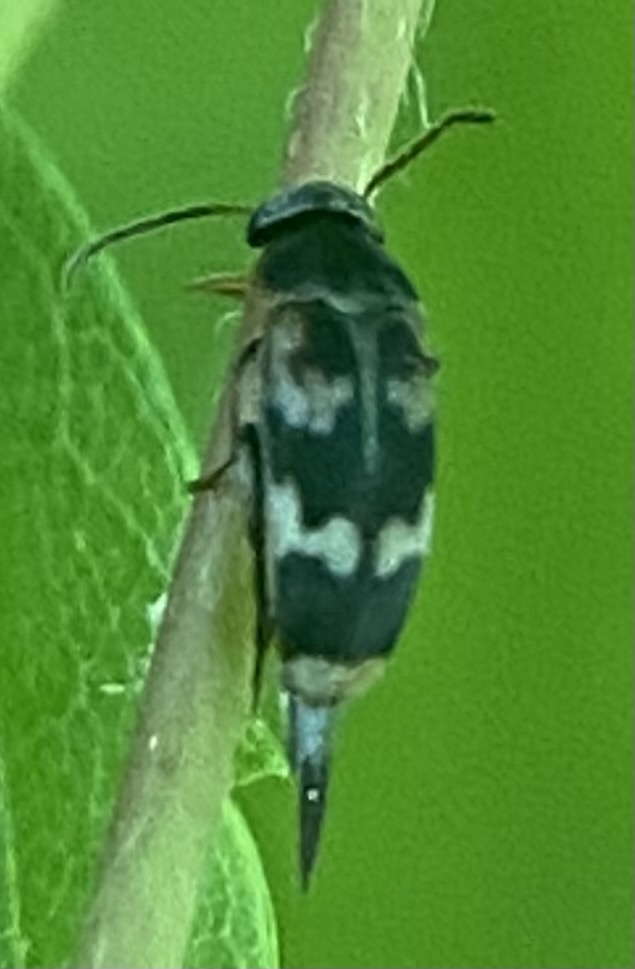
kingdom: Animalia
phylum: Arthropoda
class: Insecta
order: Coleoptera
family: Mordellidae
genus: Falsomordellistena
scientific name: Falsomordellistena pubescens
